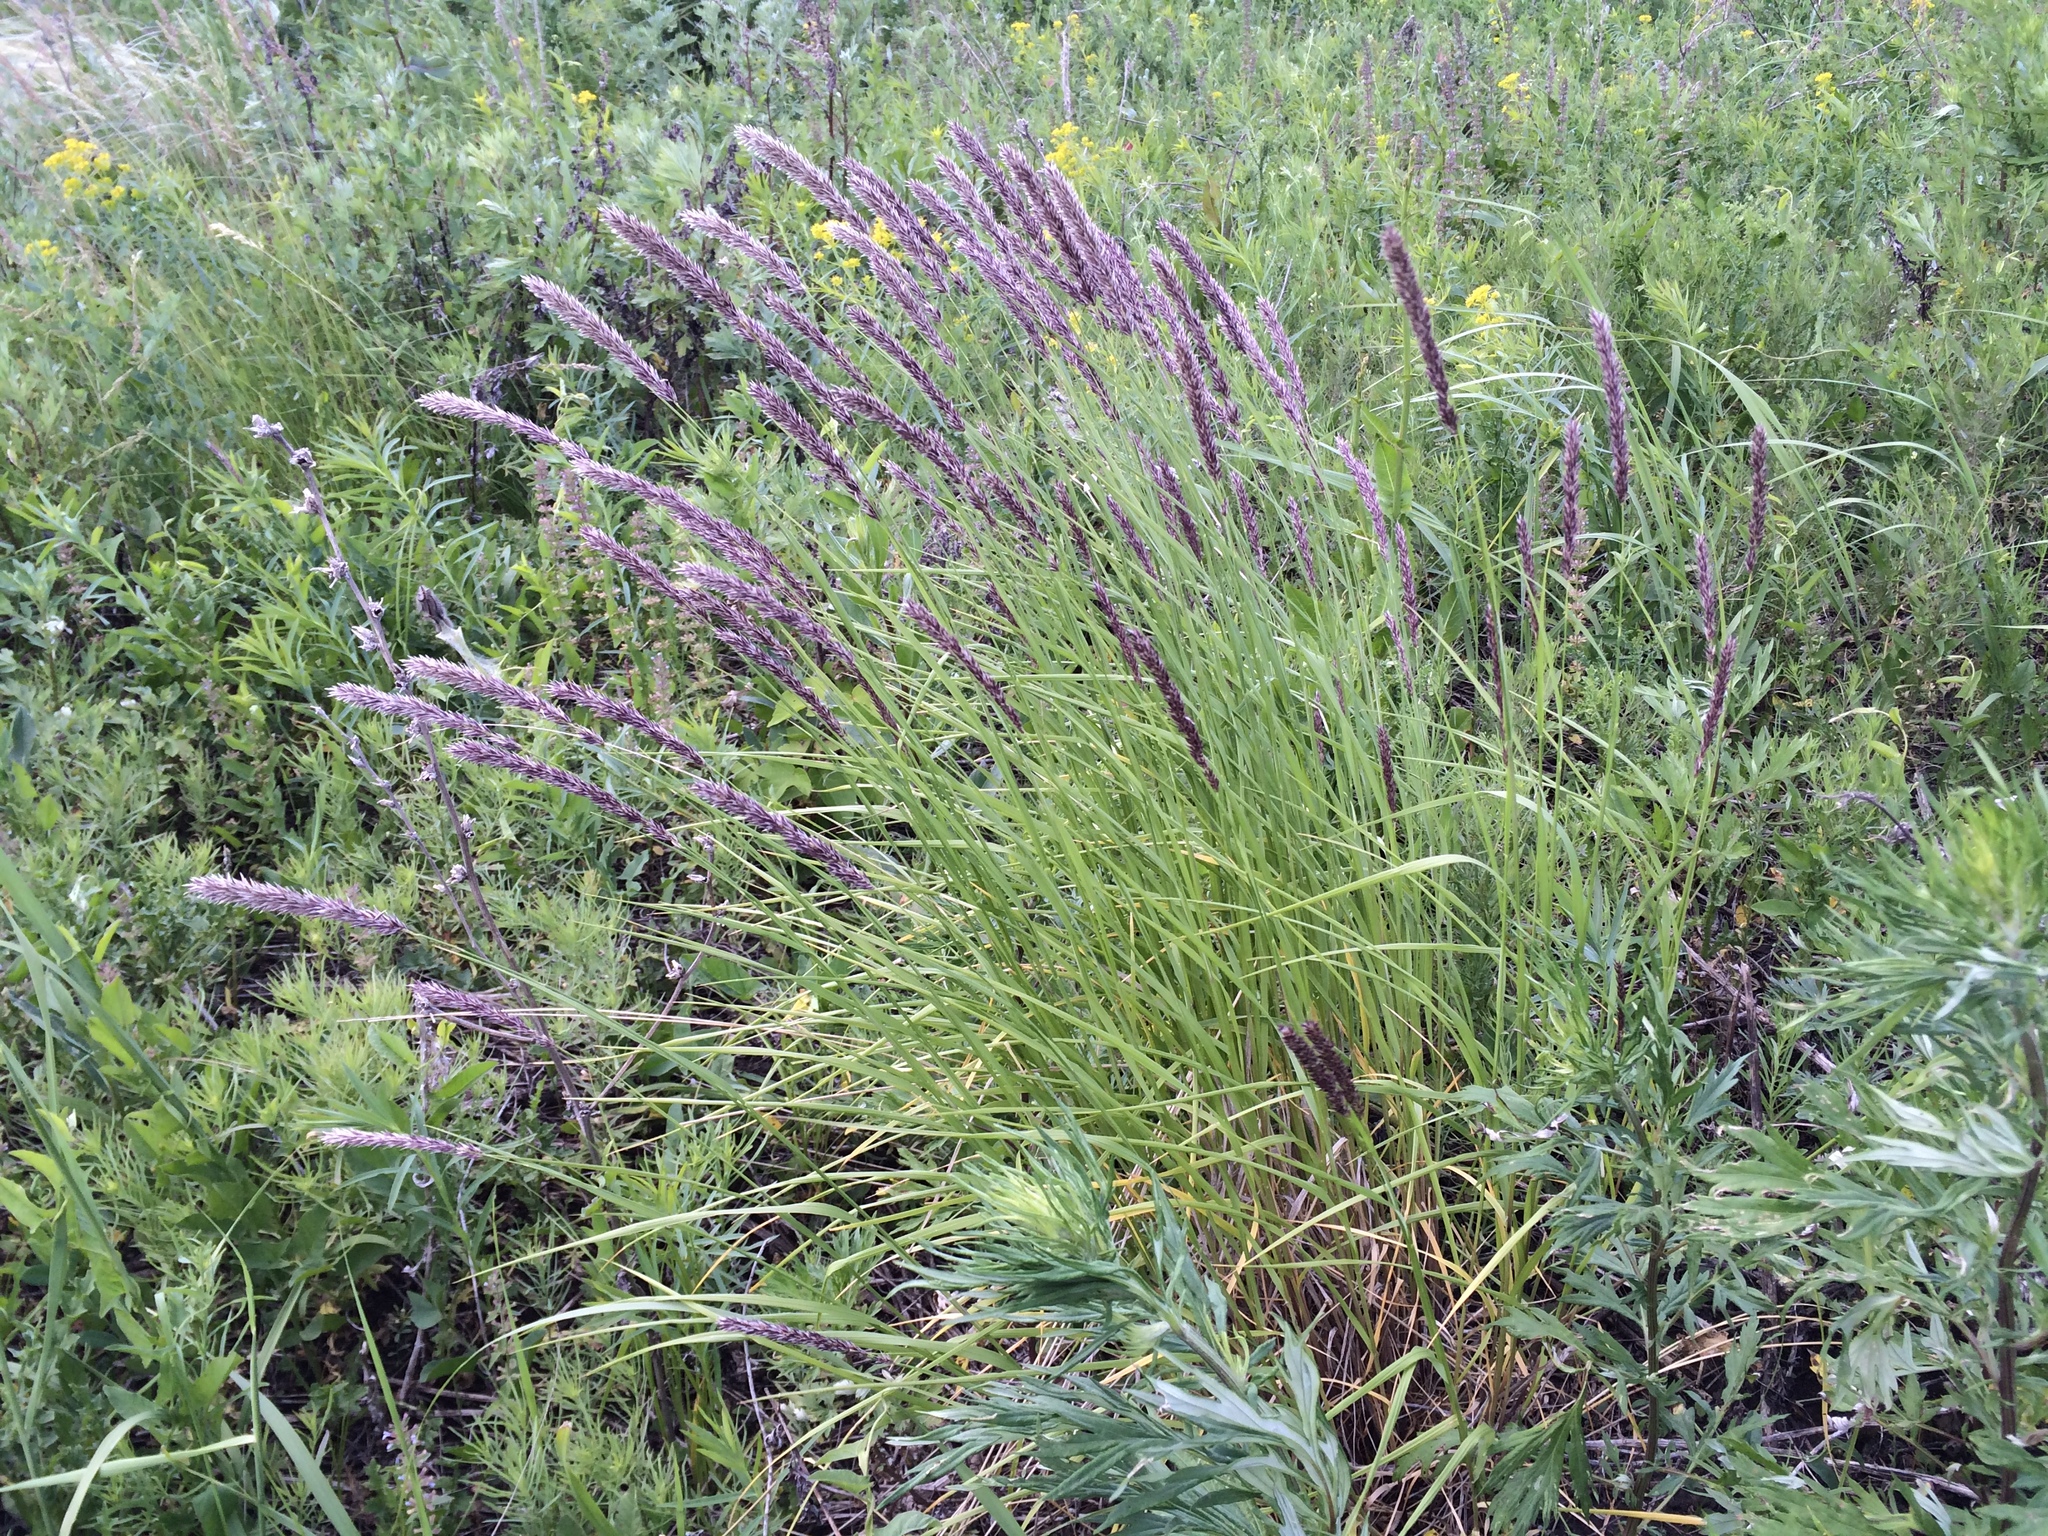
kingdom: Plantae
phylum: Tracheophyta
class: Liliopsida
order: Poales
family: Poaceae
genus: Melica
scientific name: Melica transsilvanica
